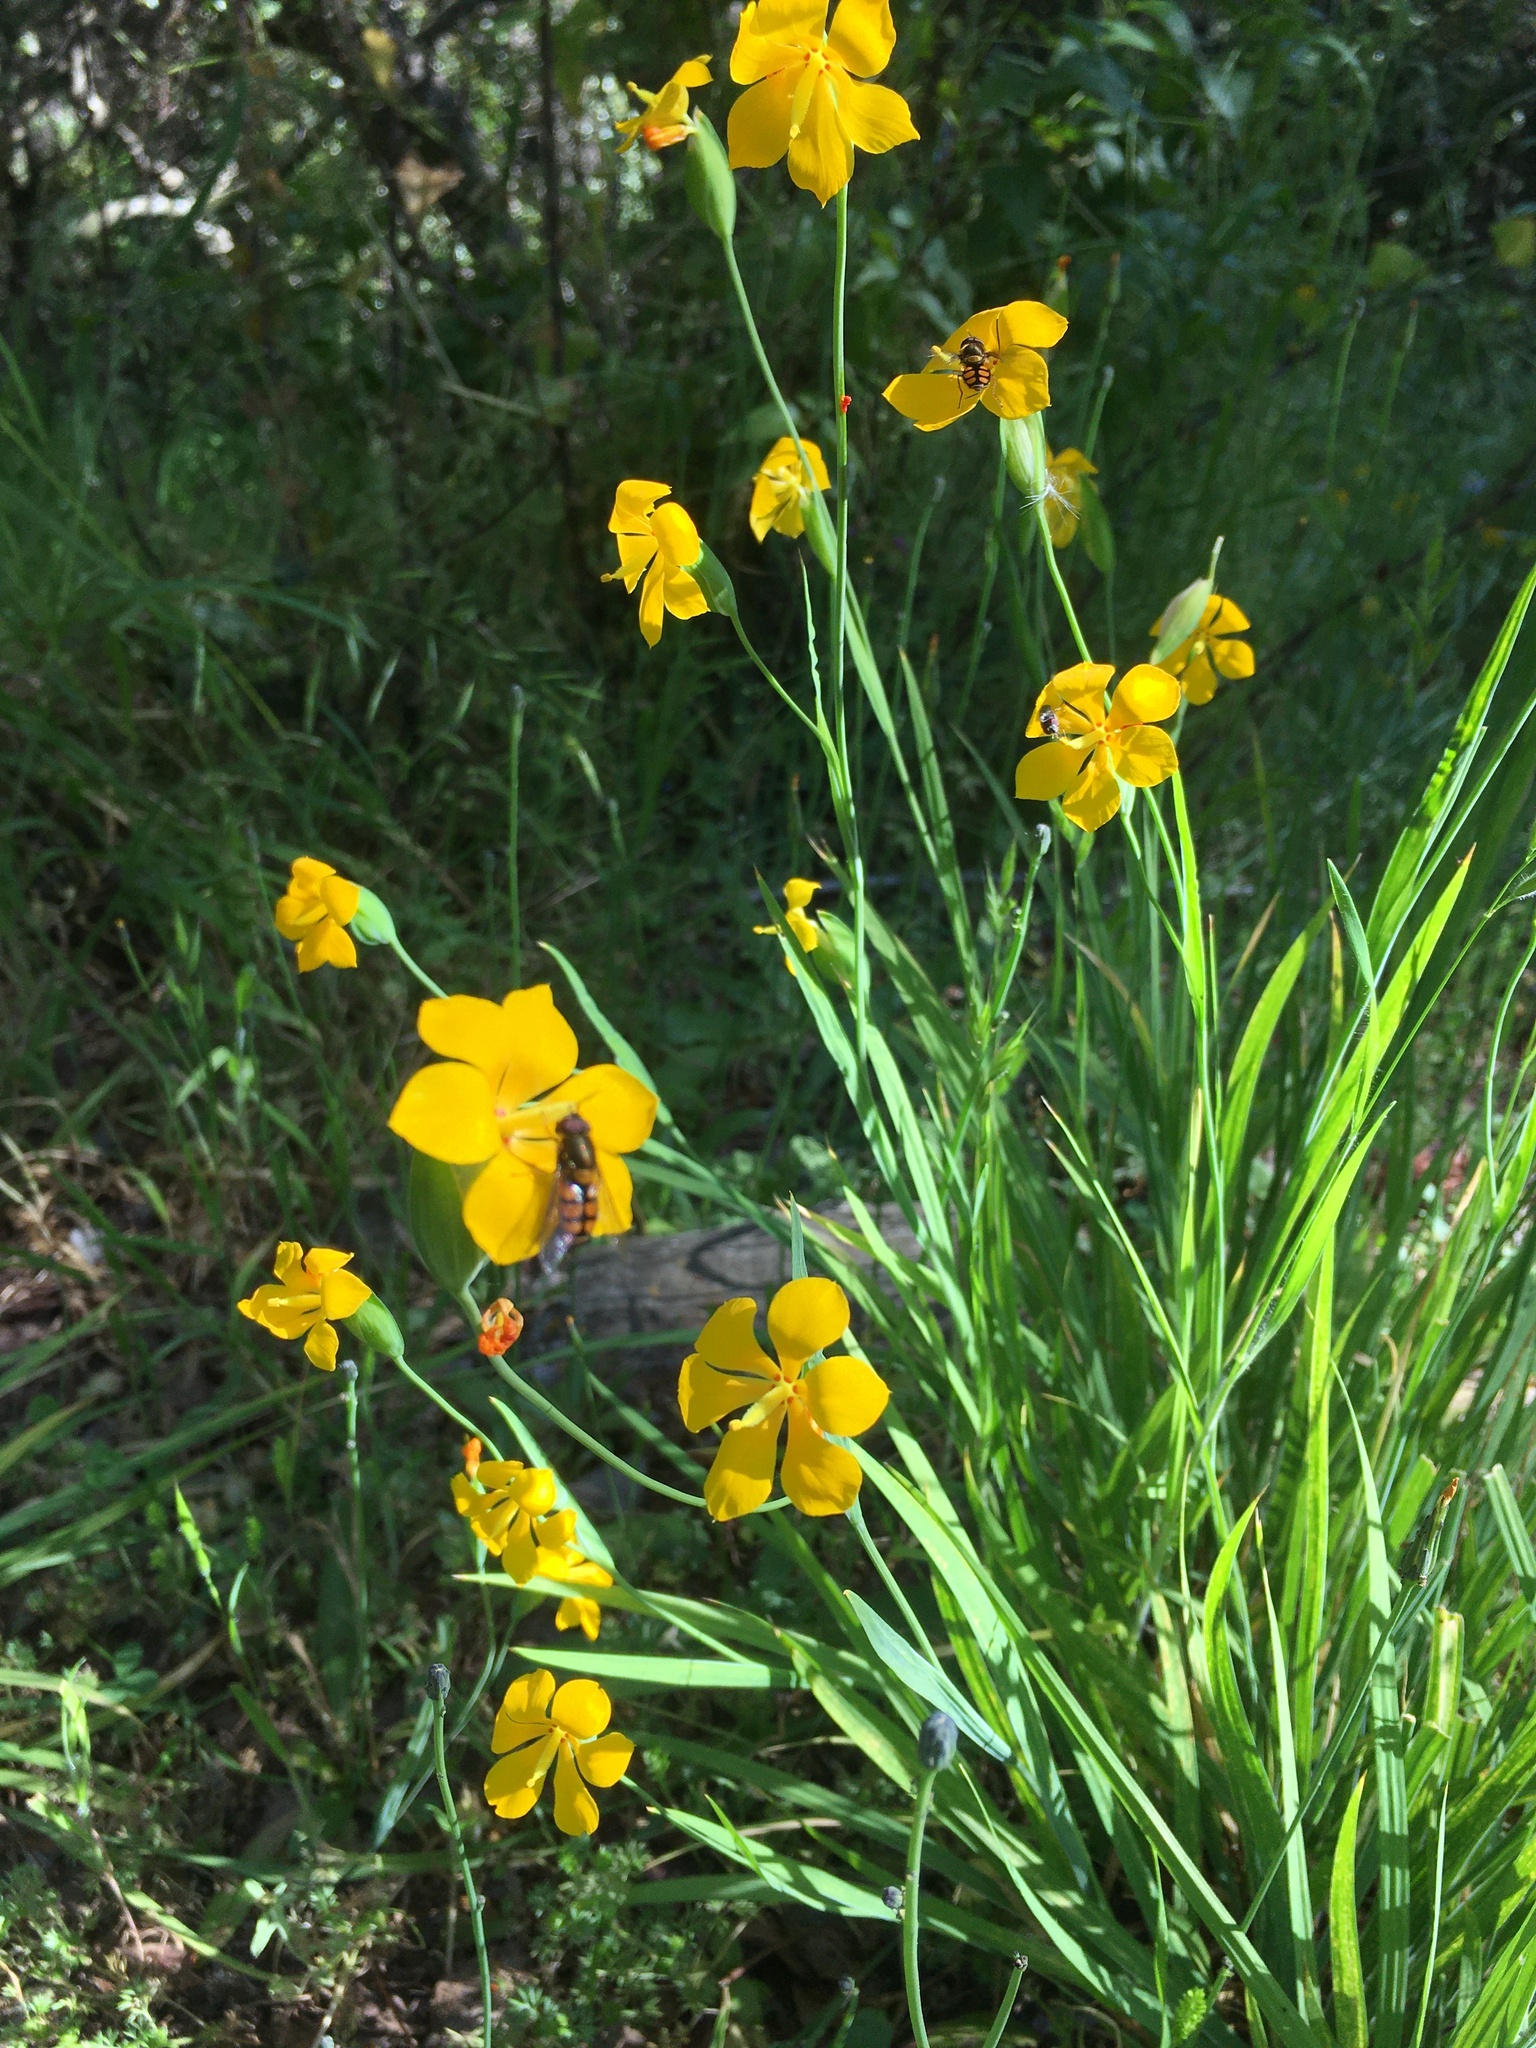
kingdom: Animalia
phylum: Arthropoda
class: Insecta
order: Diptera
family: Syrphidae
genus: Syrphus
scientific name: Syrphus octomaculatus
